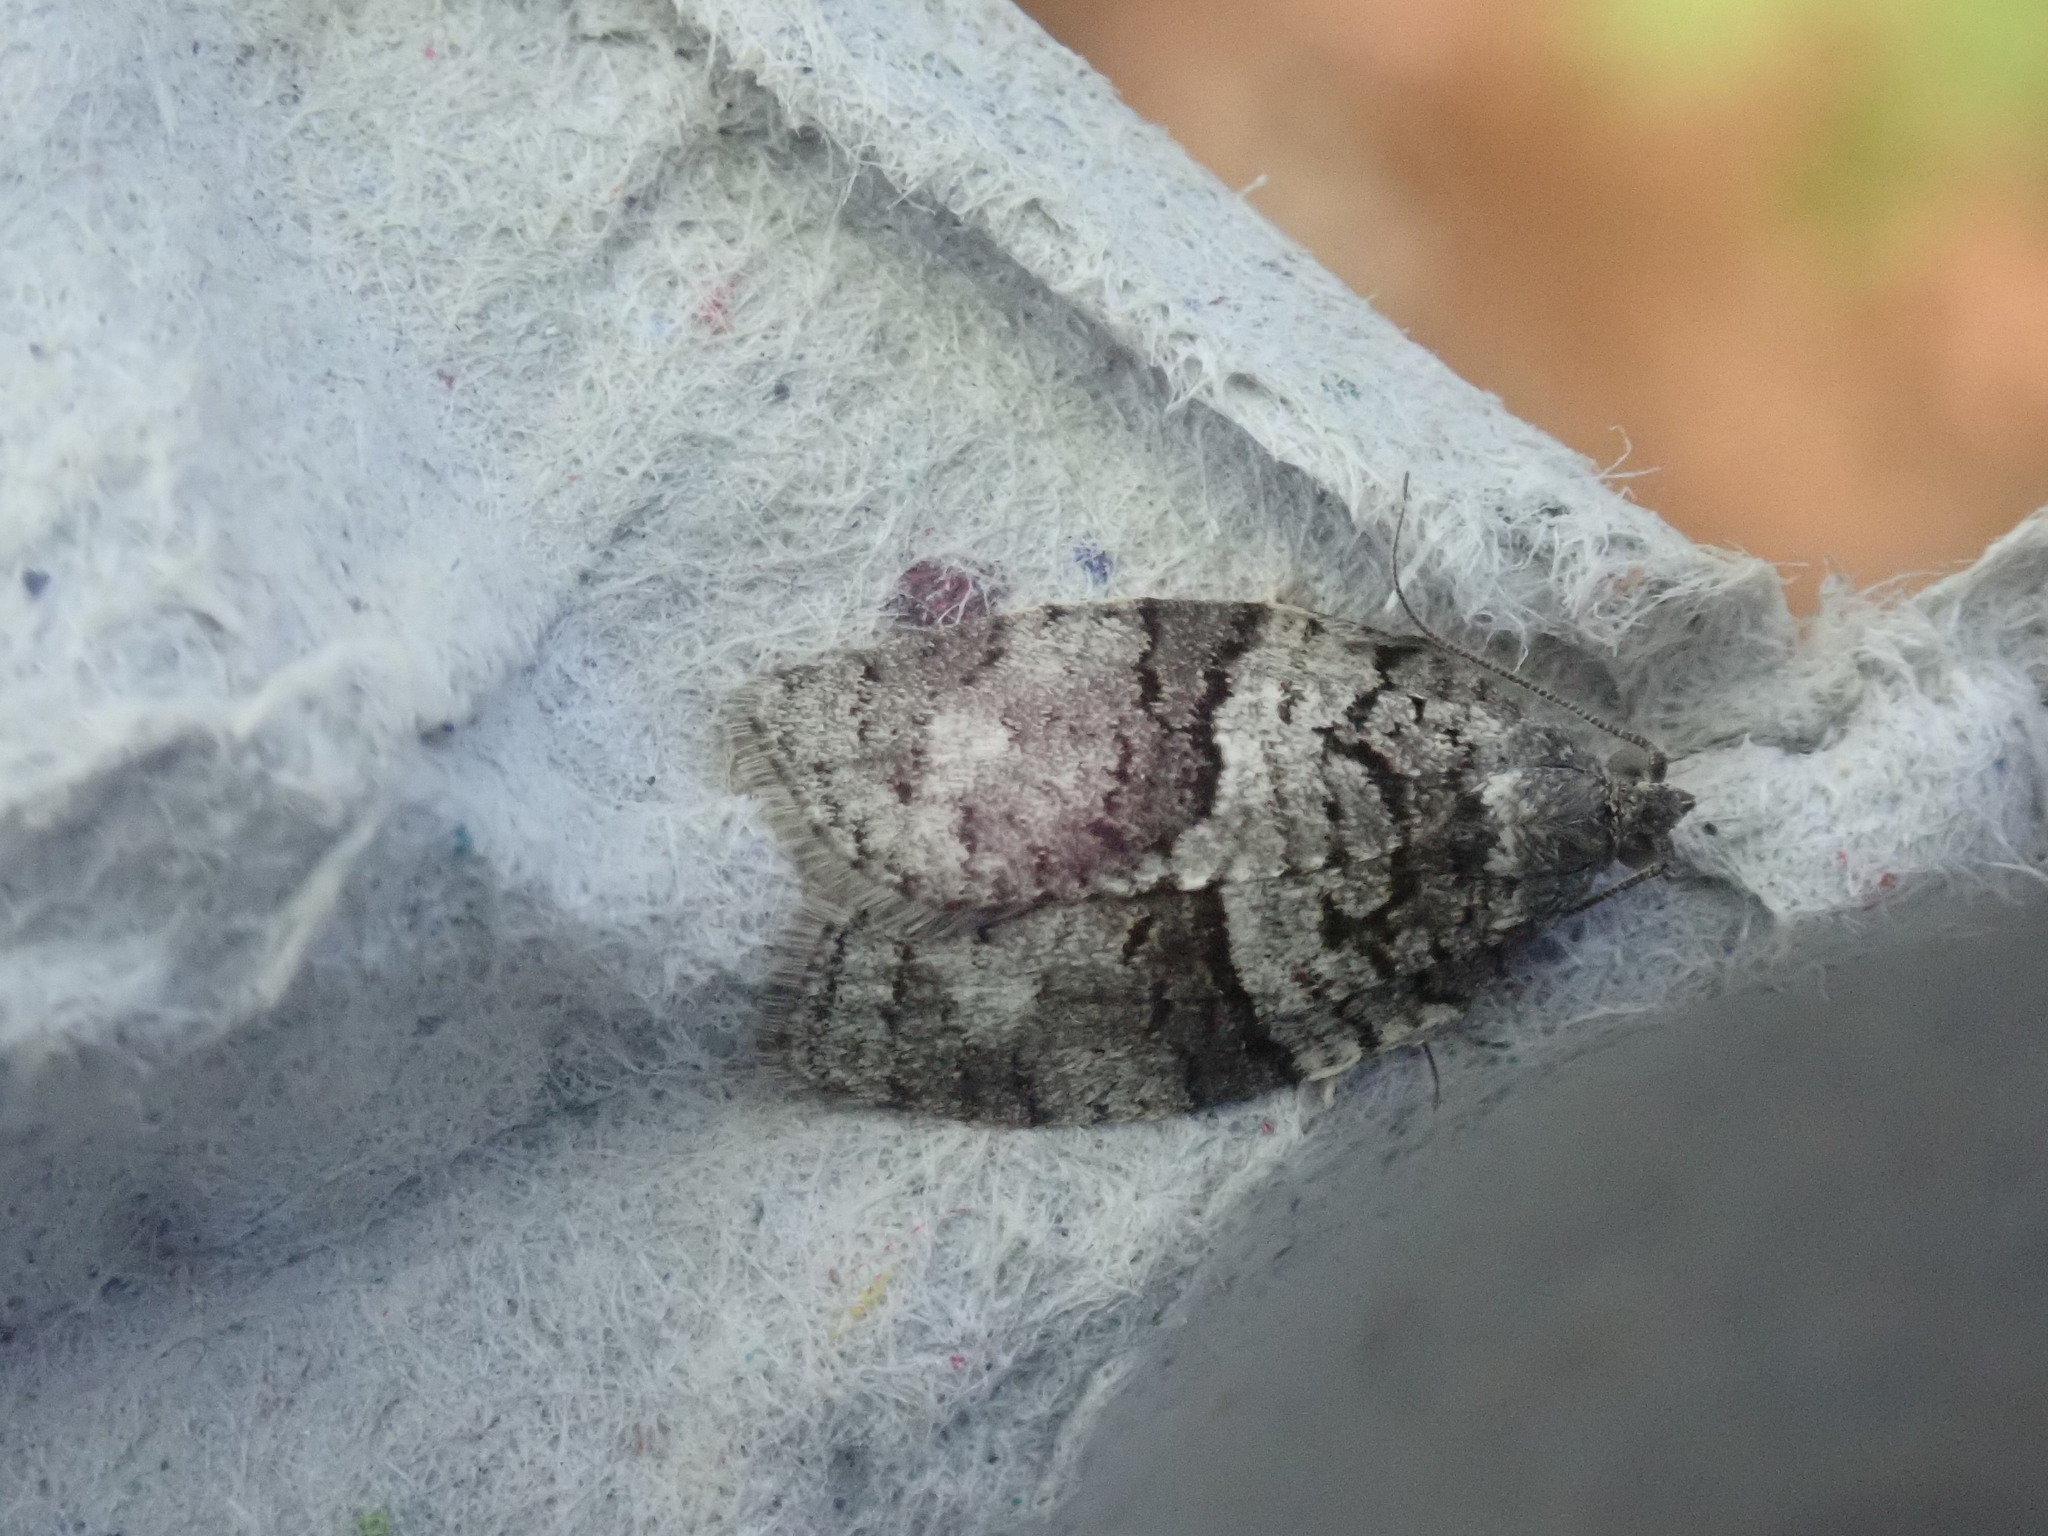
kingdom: Animalia
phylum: Arthropoda
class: Insecta
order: Lepidoptera
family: Tortricidae
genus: Syndemis
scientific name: Syndemis afflictana
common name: Gray leafroller moth
